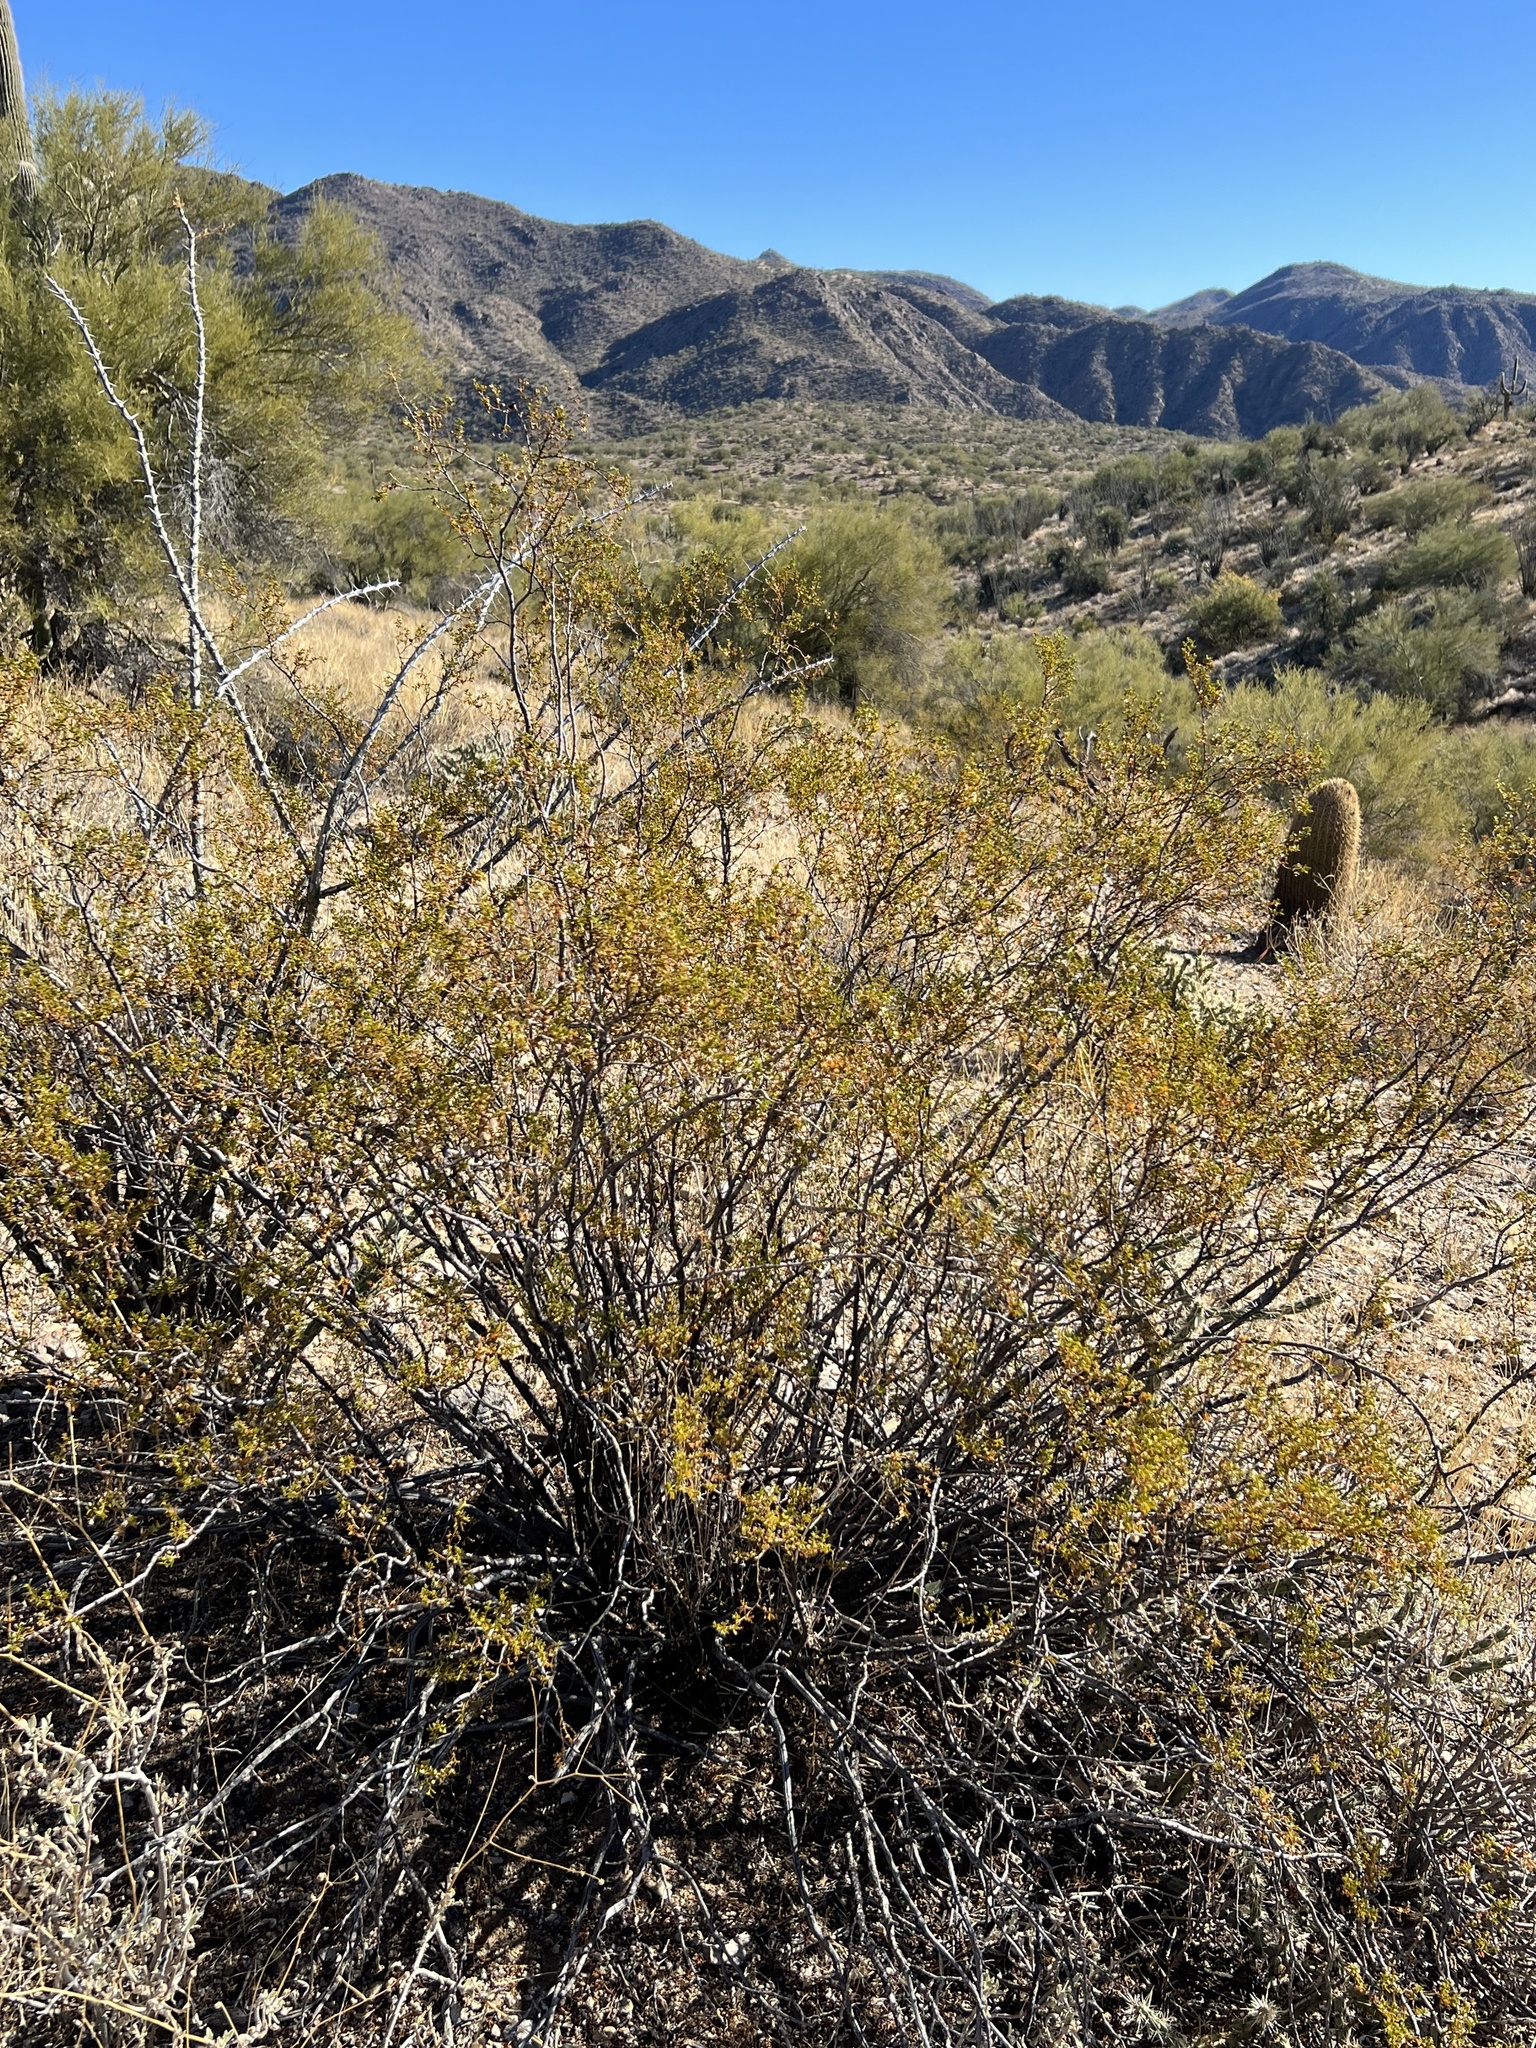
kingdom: Plantae
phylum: Tracheophyta
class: Magnoliopsida
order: Zygophyllales
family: Zygophyllaceae
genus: Larrea
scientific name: Larrea tridentata
